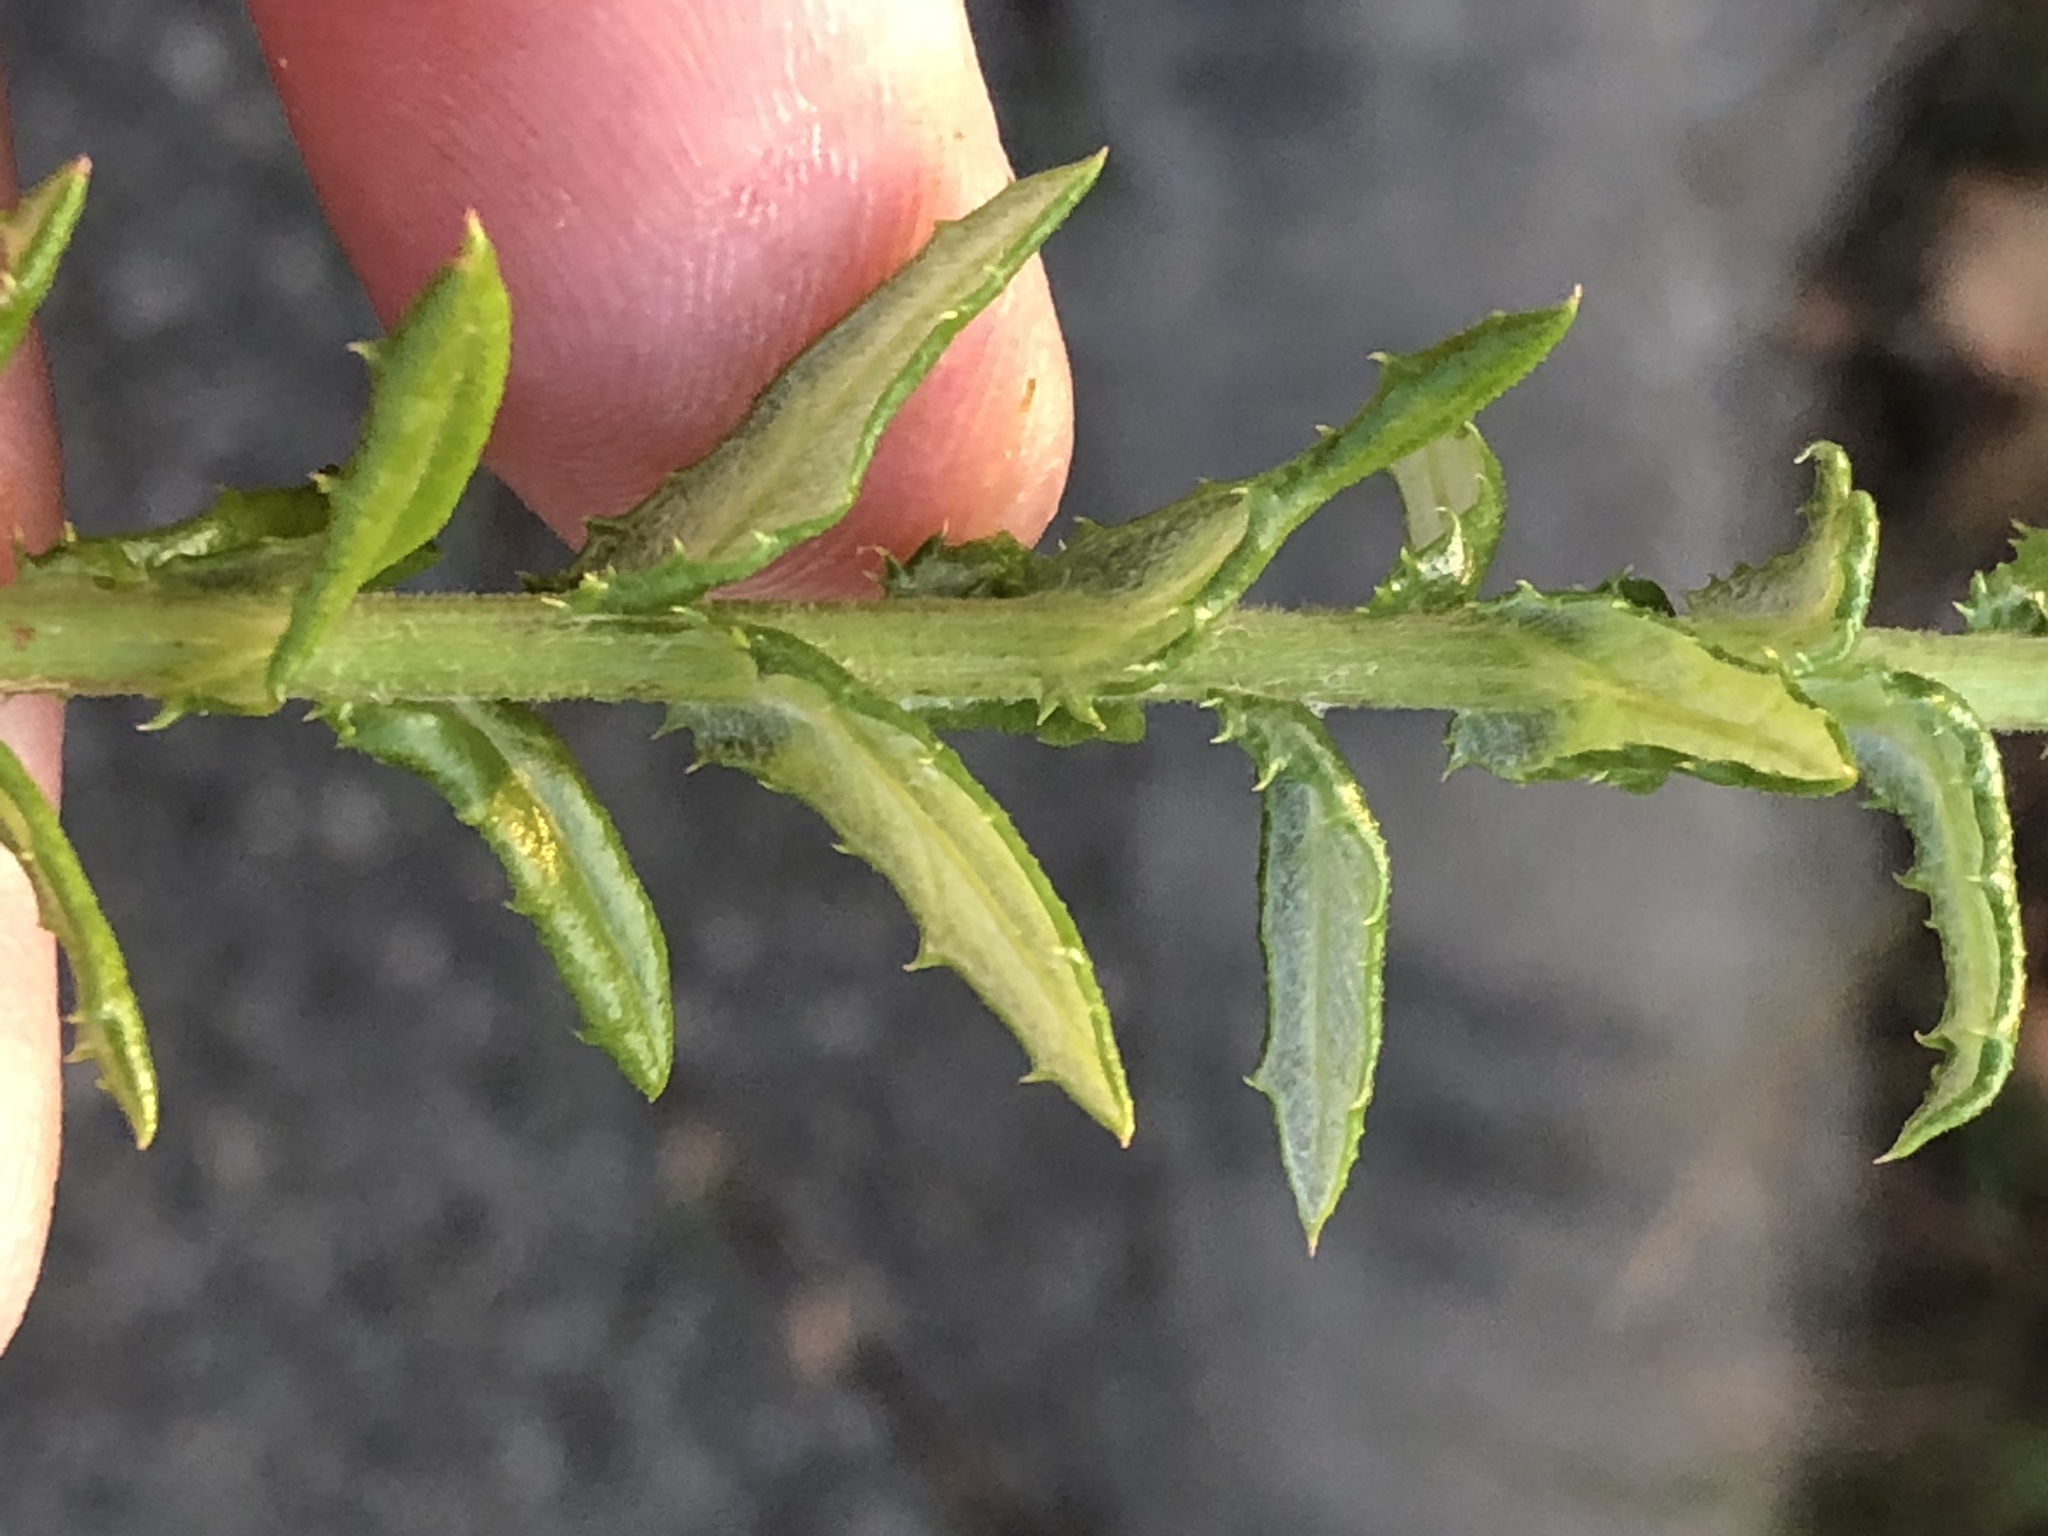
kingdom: Plantae
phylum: Tracheophyta
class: Magnoliopsida
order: Asterales
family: Asteraceae
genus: Senecio
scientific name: Senecio ilicifolius
